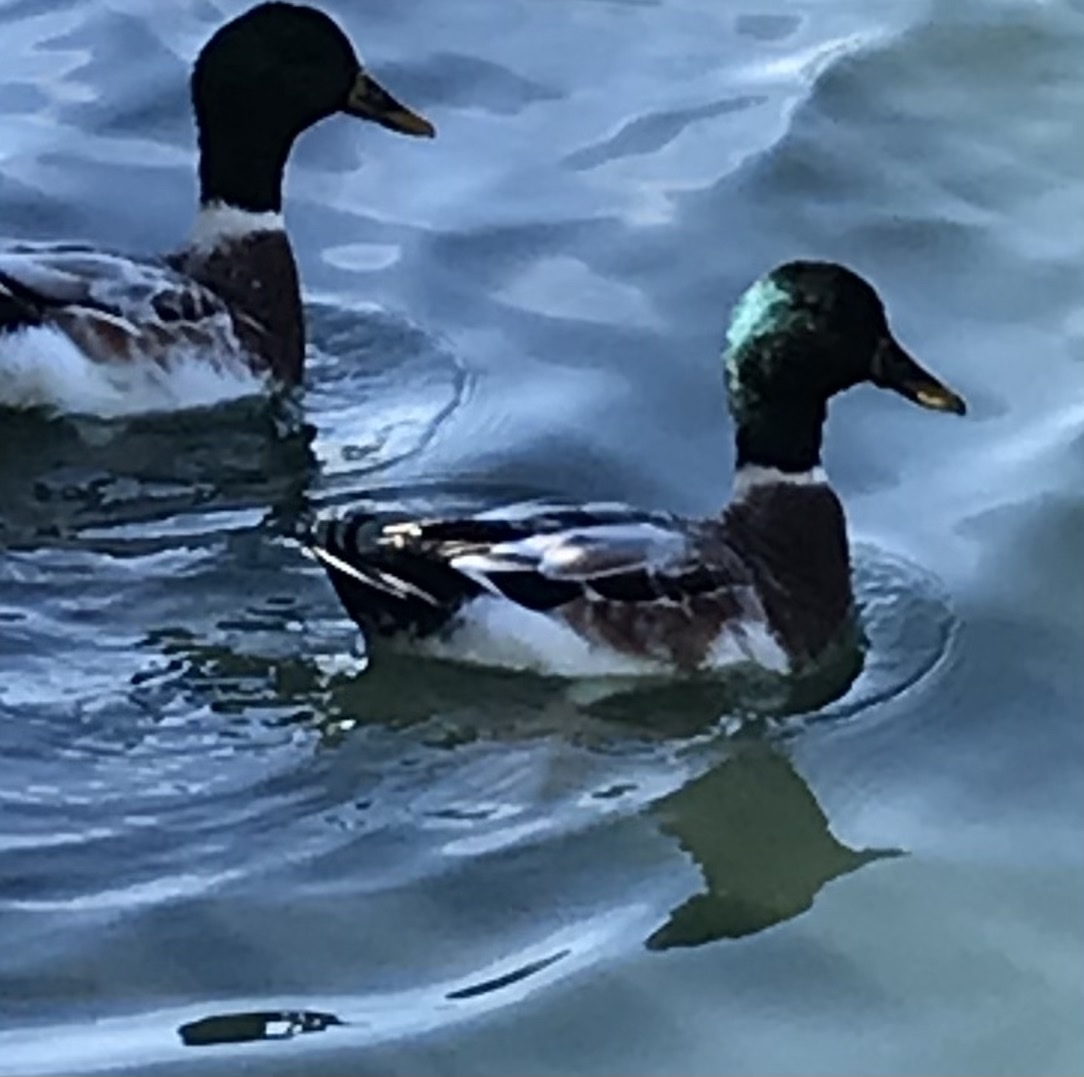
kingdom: Animalia
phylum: Chordata
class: Aves
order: Anseriformes
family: Anatidae
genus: Anas
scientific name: Anas platyrhynchos
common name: Mallard
